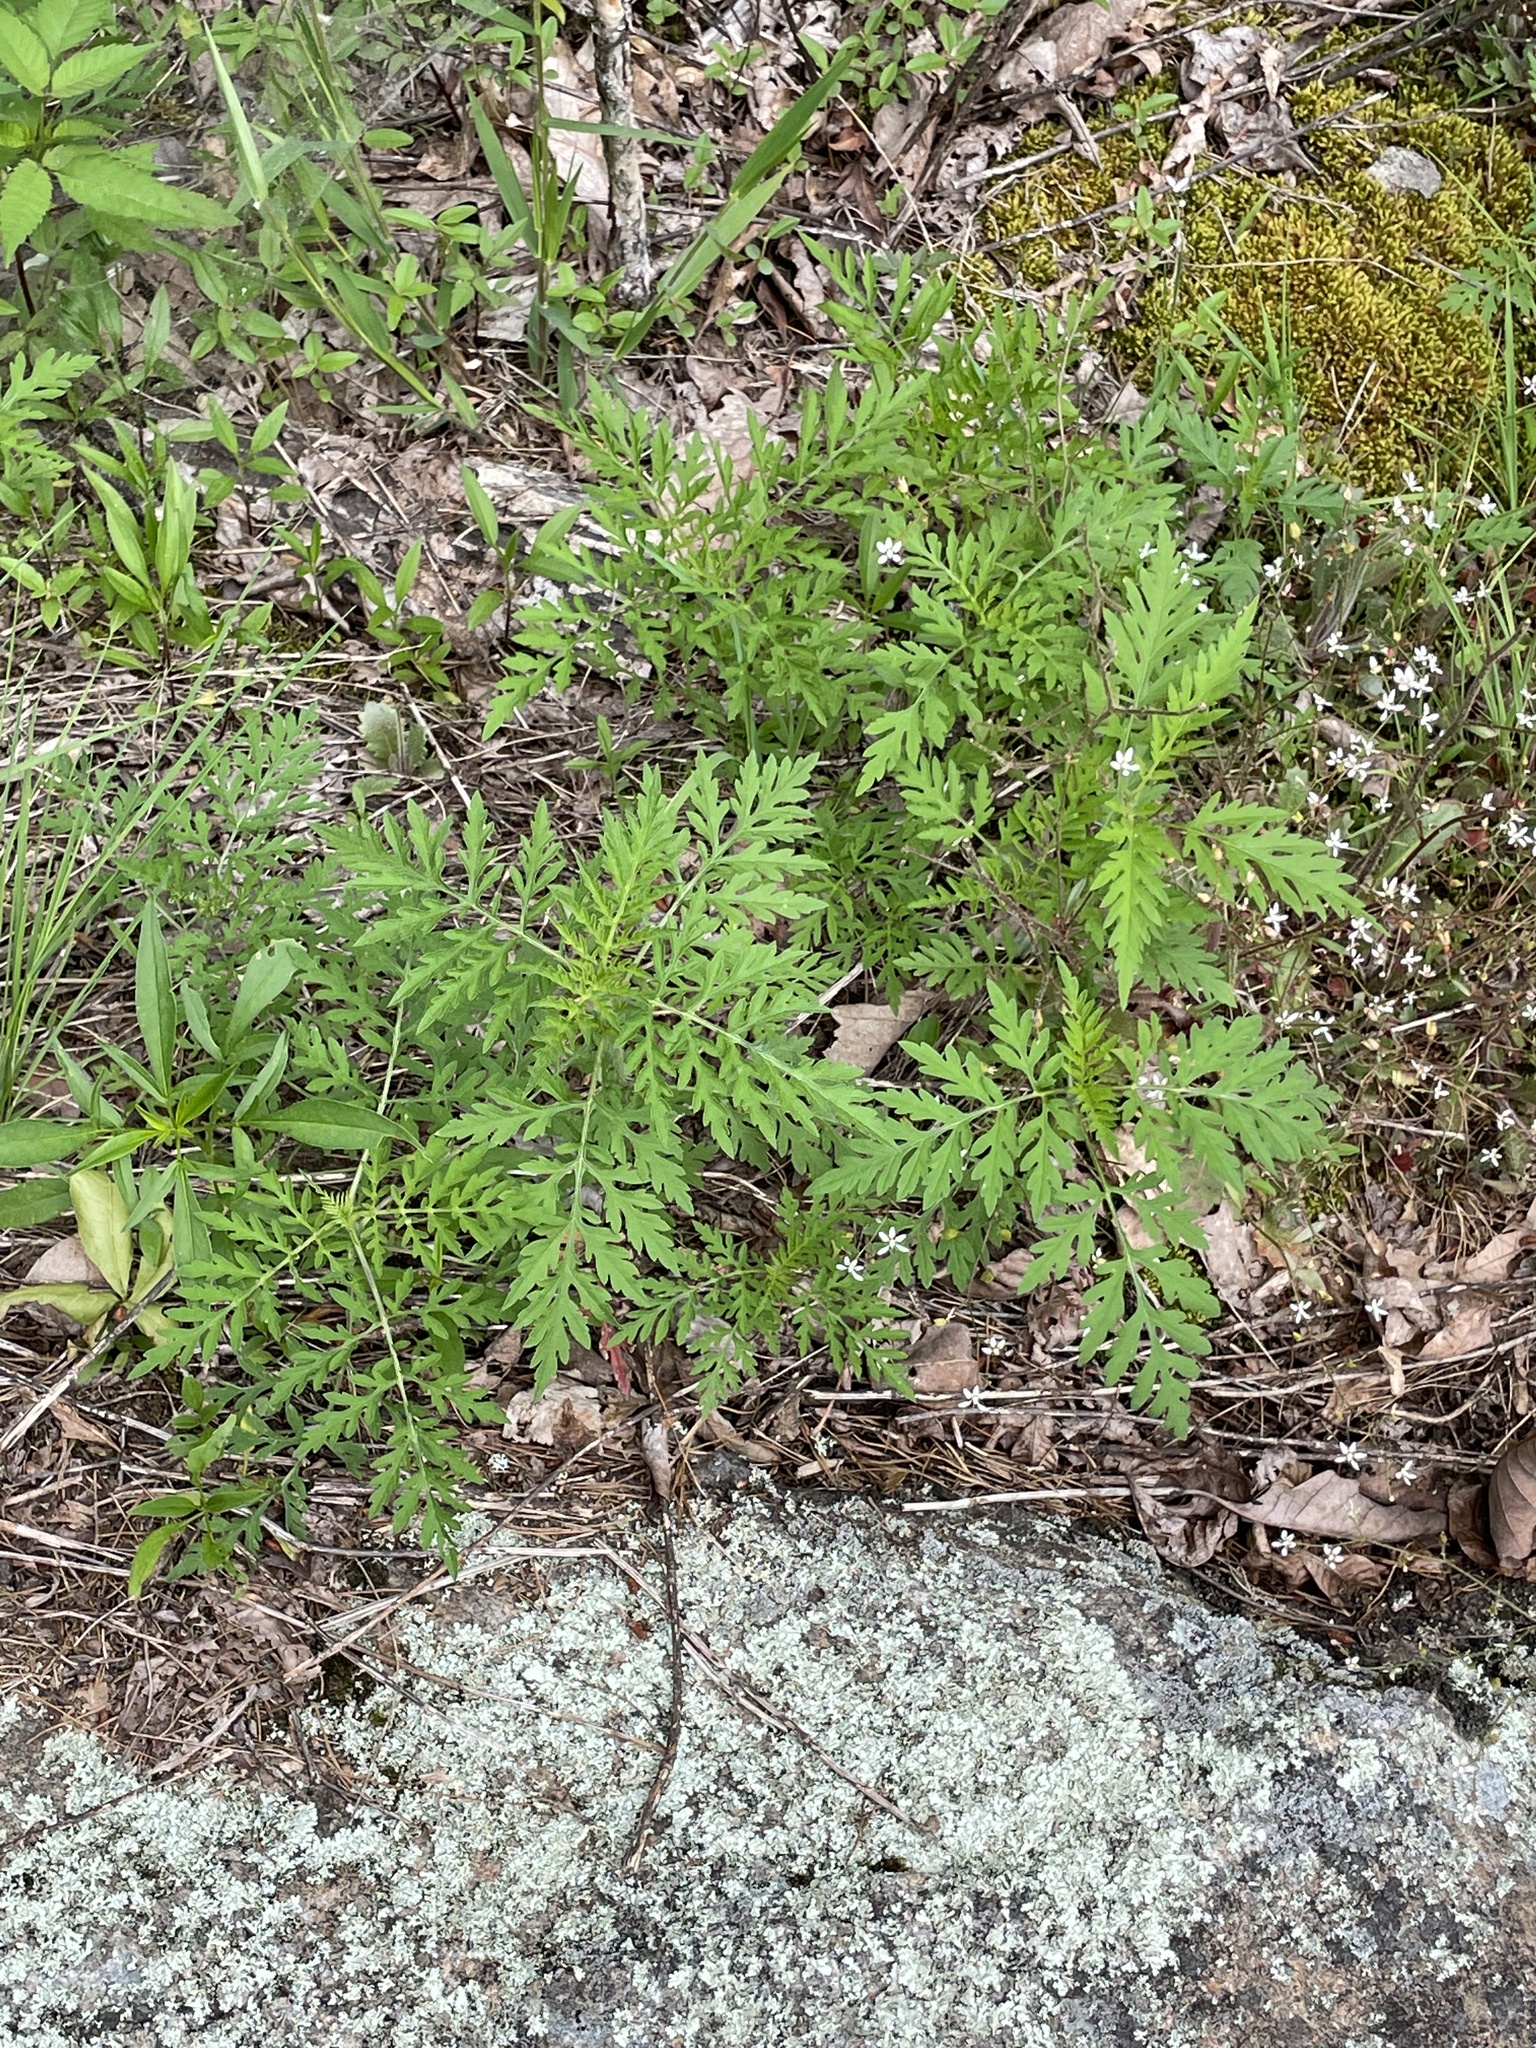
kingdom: Plantae
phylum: Tracheophyta
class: Magnoliopsida
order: Asterales
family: Asteraceae
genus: Ambrosia
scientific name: Ambrosia artemisiifolia
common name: Annual ragweed
